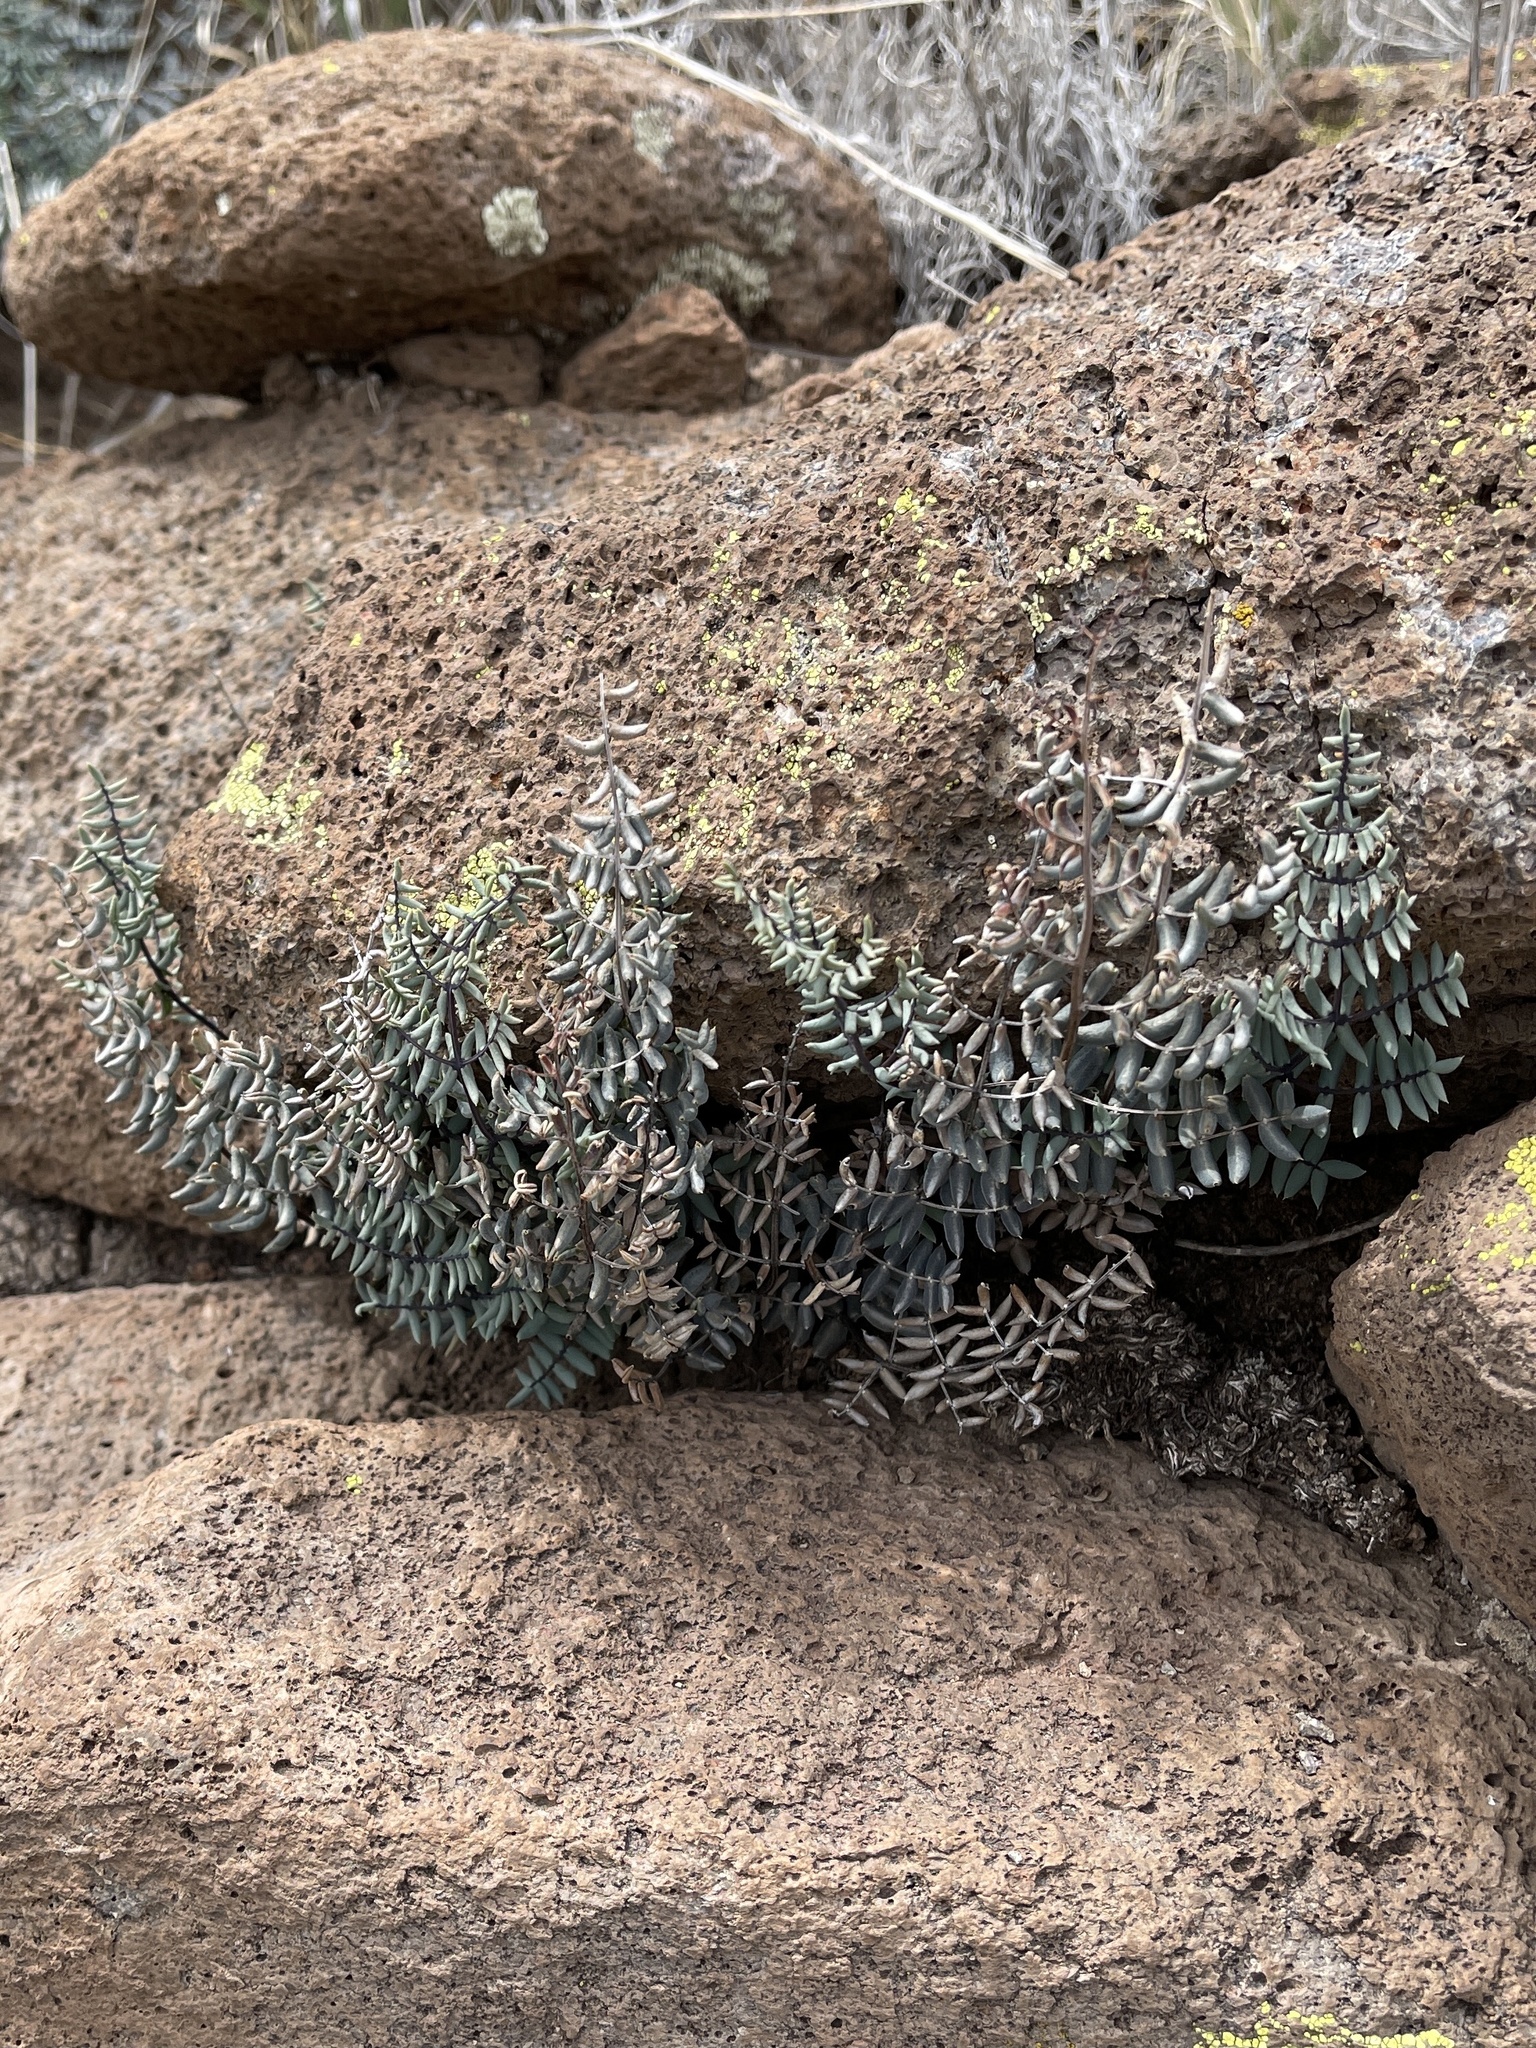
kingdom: Plantae
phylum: Tracheophyta
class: Polypodiopsida
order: Polypodiales
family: Pteridaceae
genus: Pellaea
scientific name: Pellaea truncata
